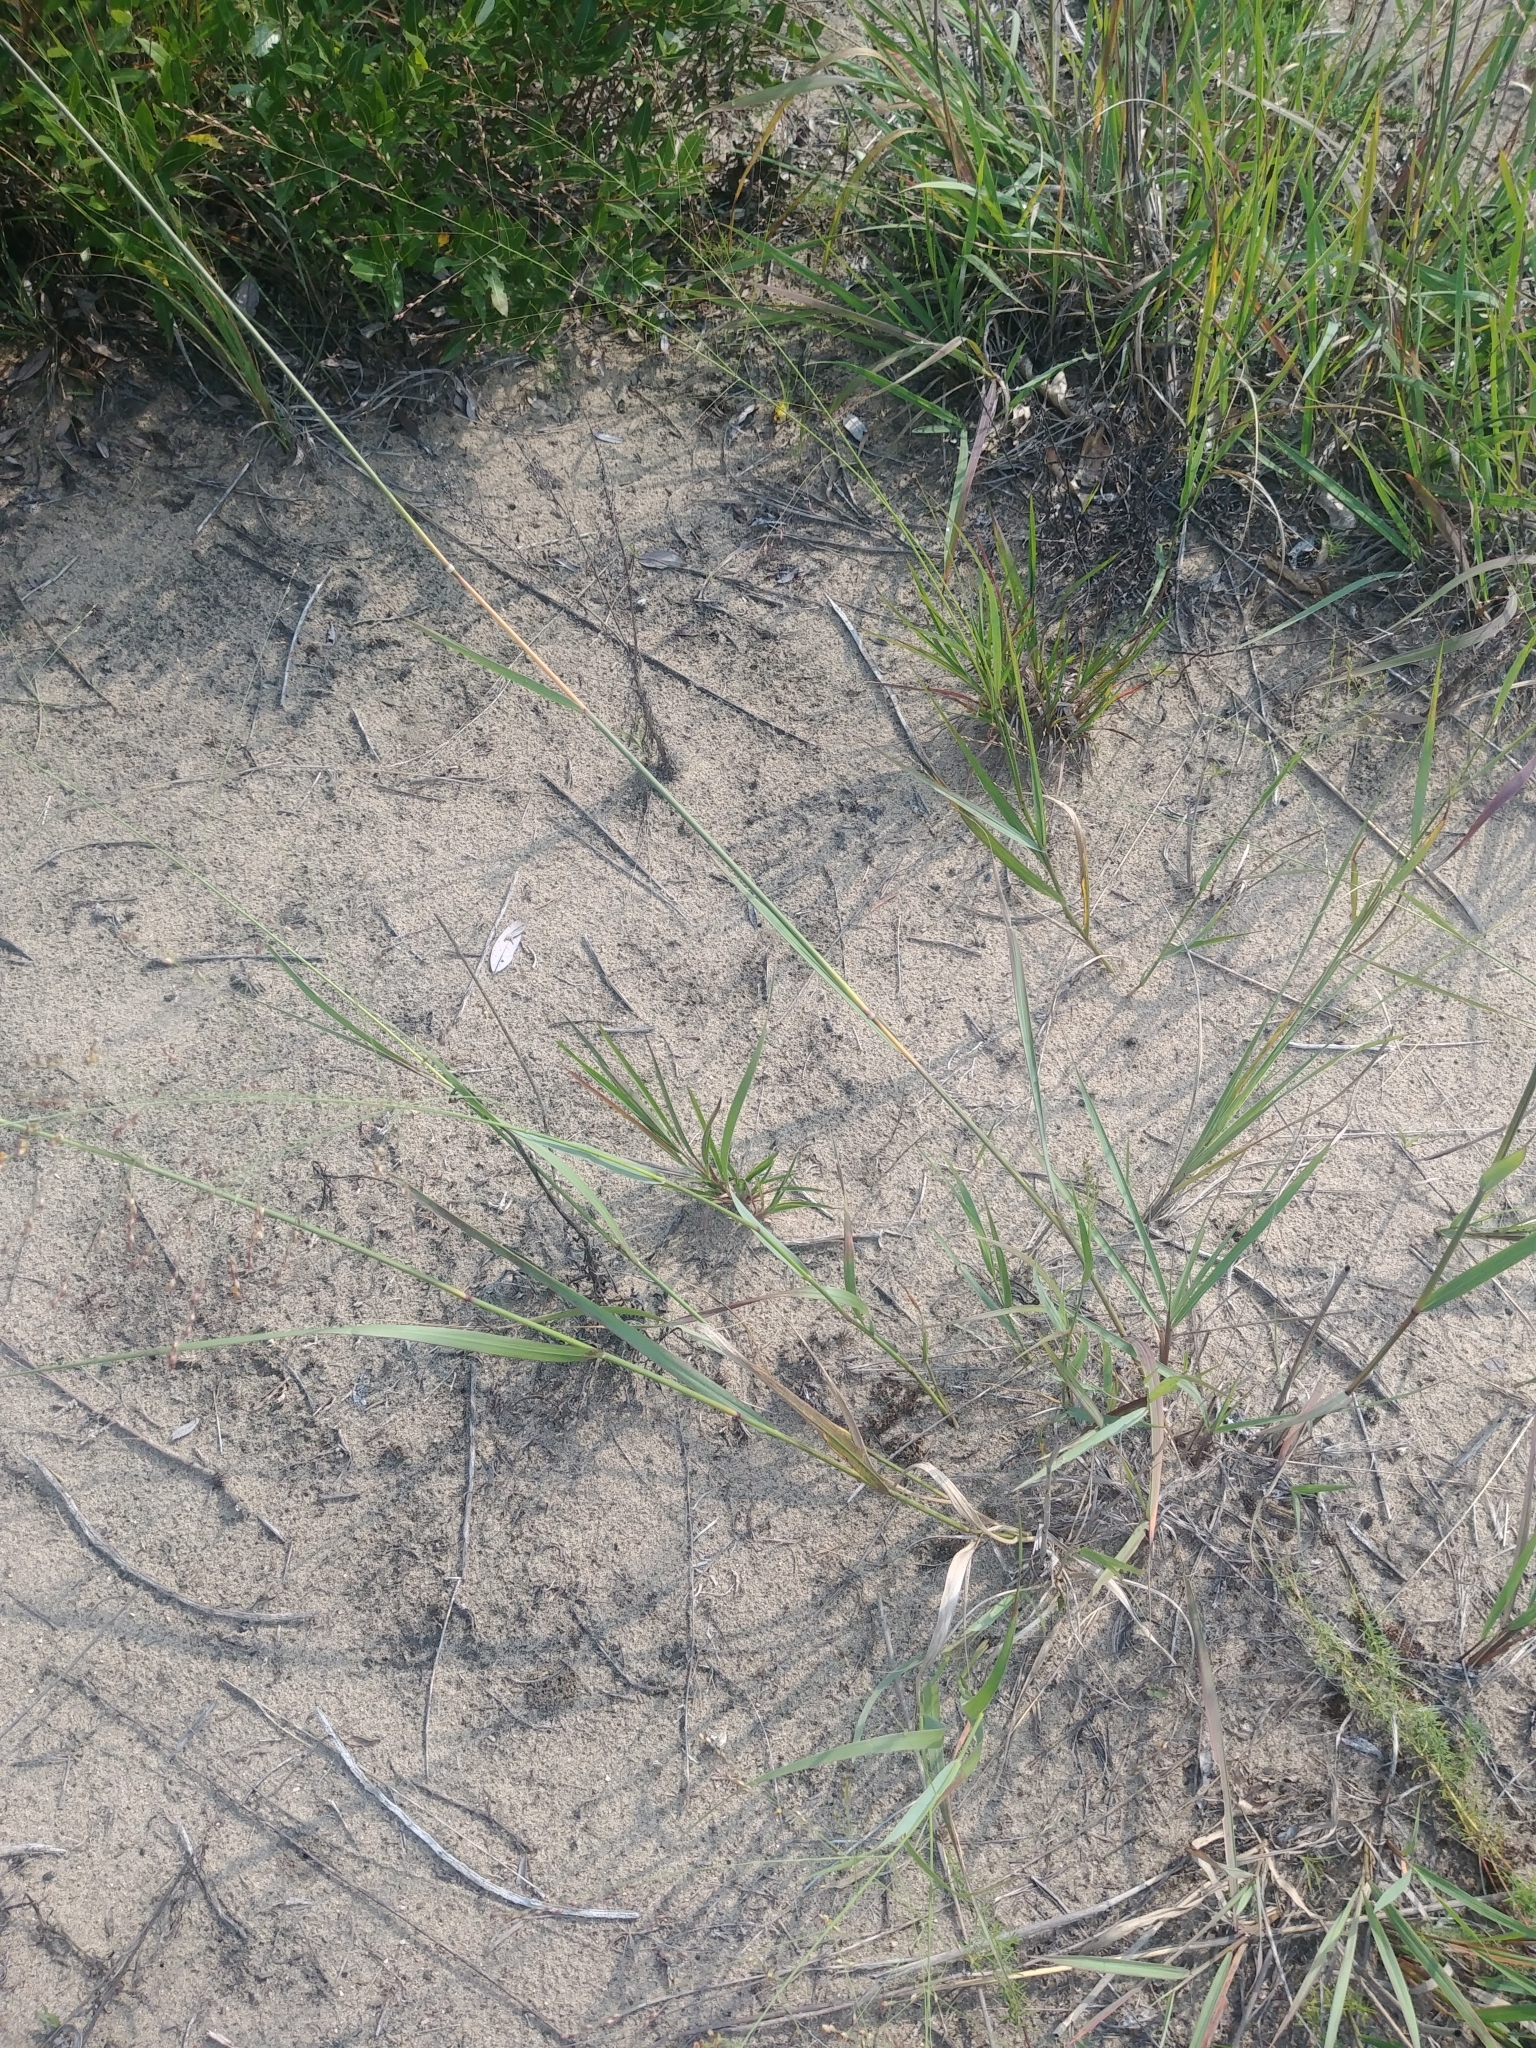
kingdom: Plantae
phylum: Tracheophyta
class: Liliopsida
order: Poales
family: Poaceae
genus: Panicum
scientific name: Panicum virgatum
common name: Switchgrass
